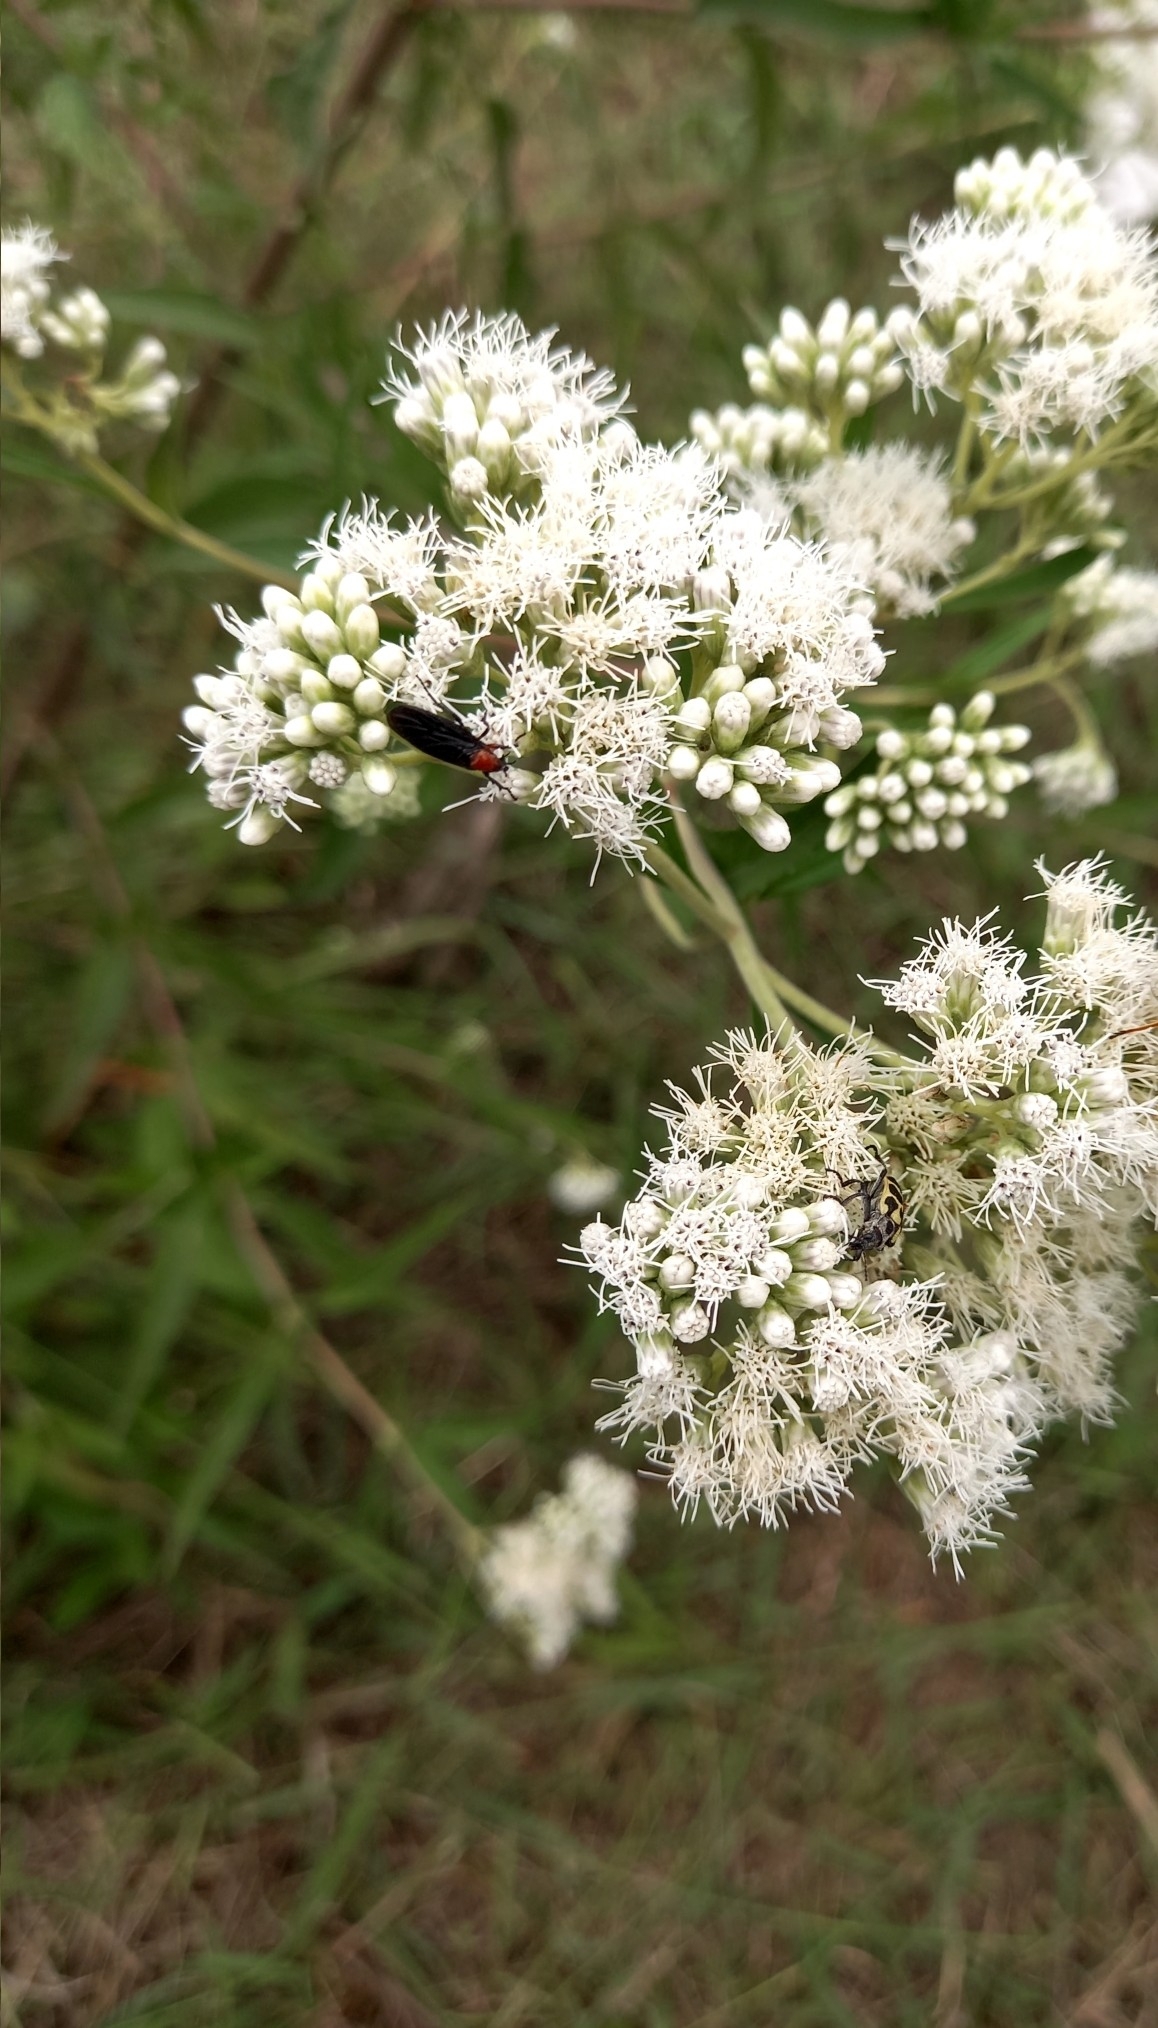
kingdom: Animalia
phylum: Arthropoda
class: Insecta
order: Diptera
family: Bibionidae
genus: Dilophus
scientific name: Dilophus pectoralis
